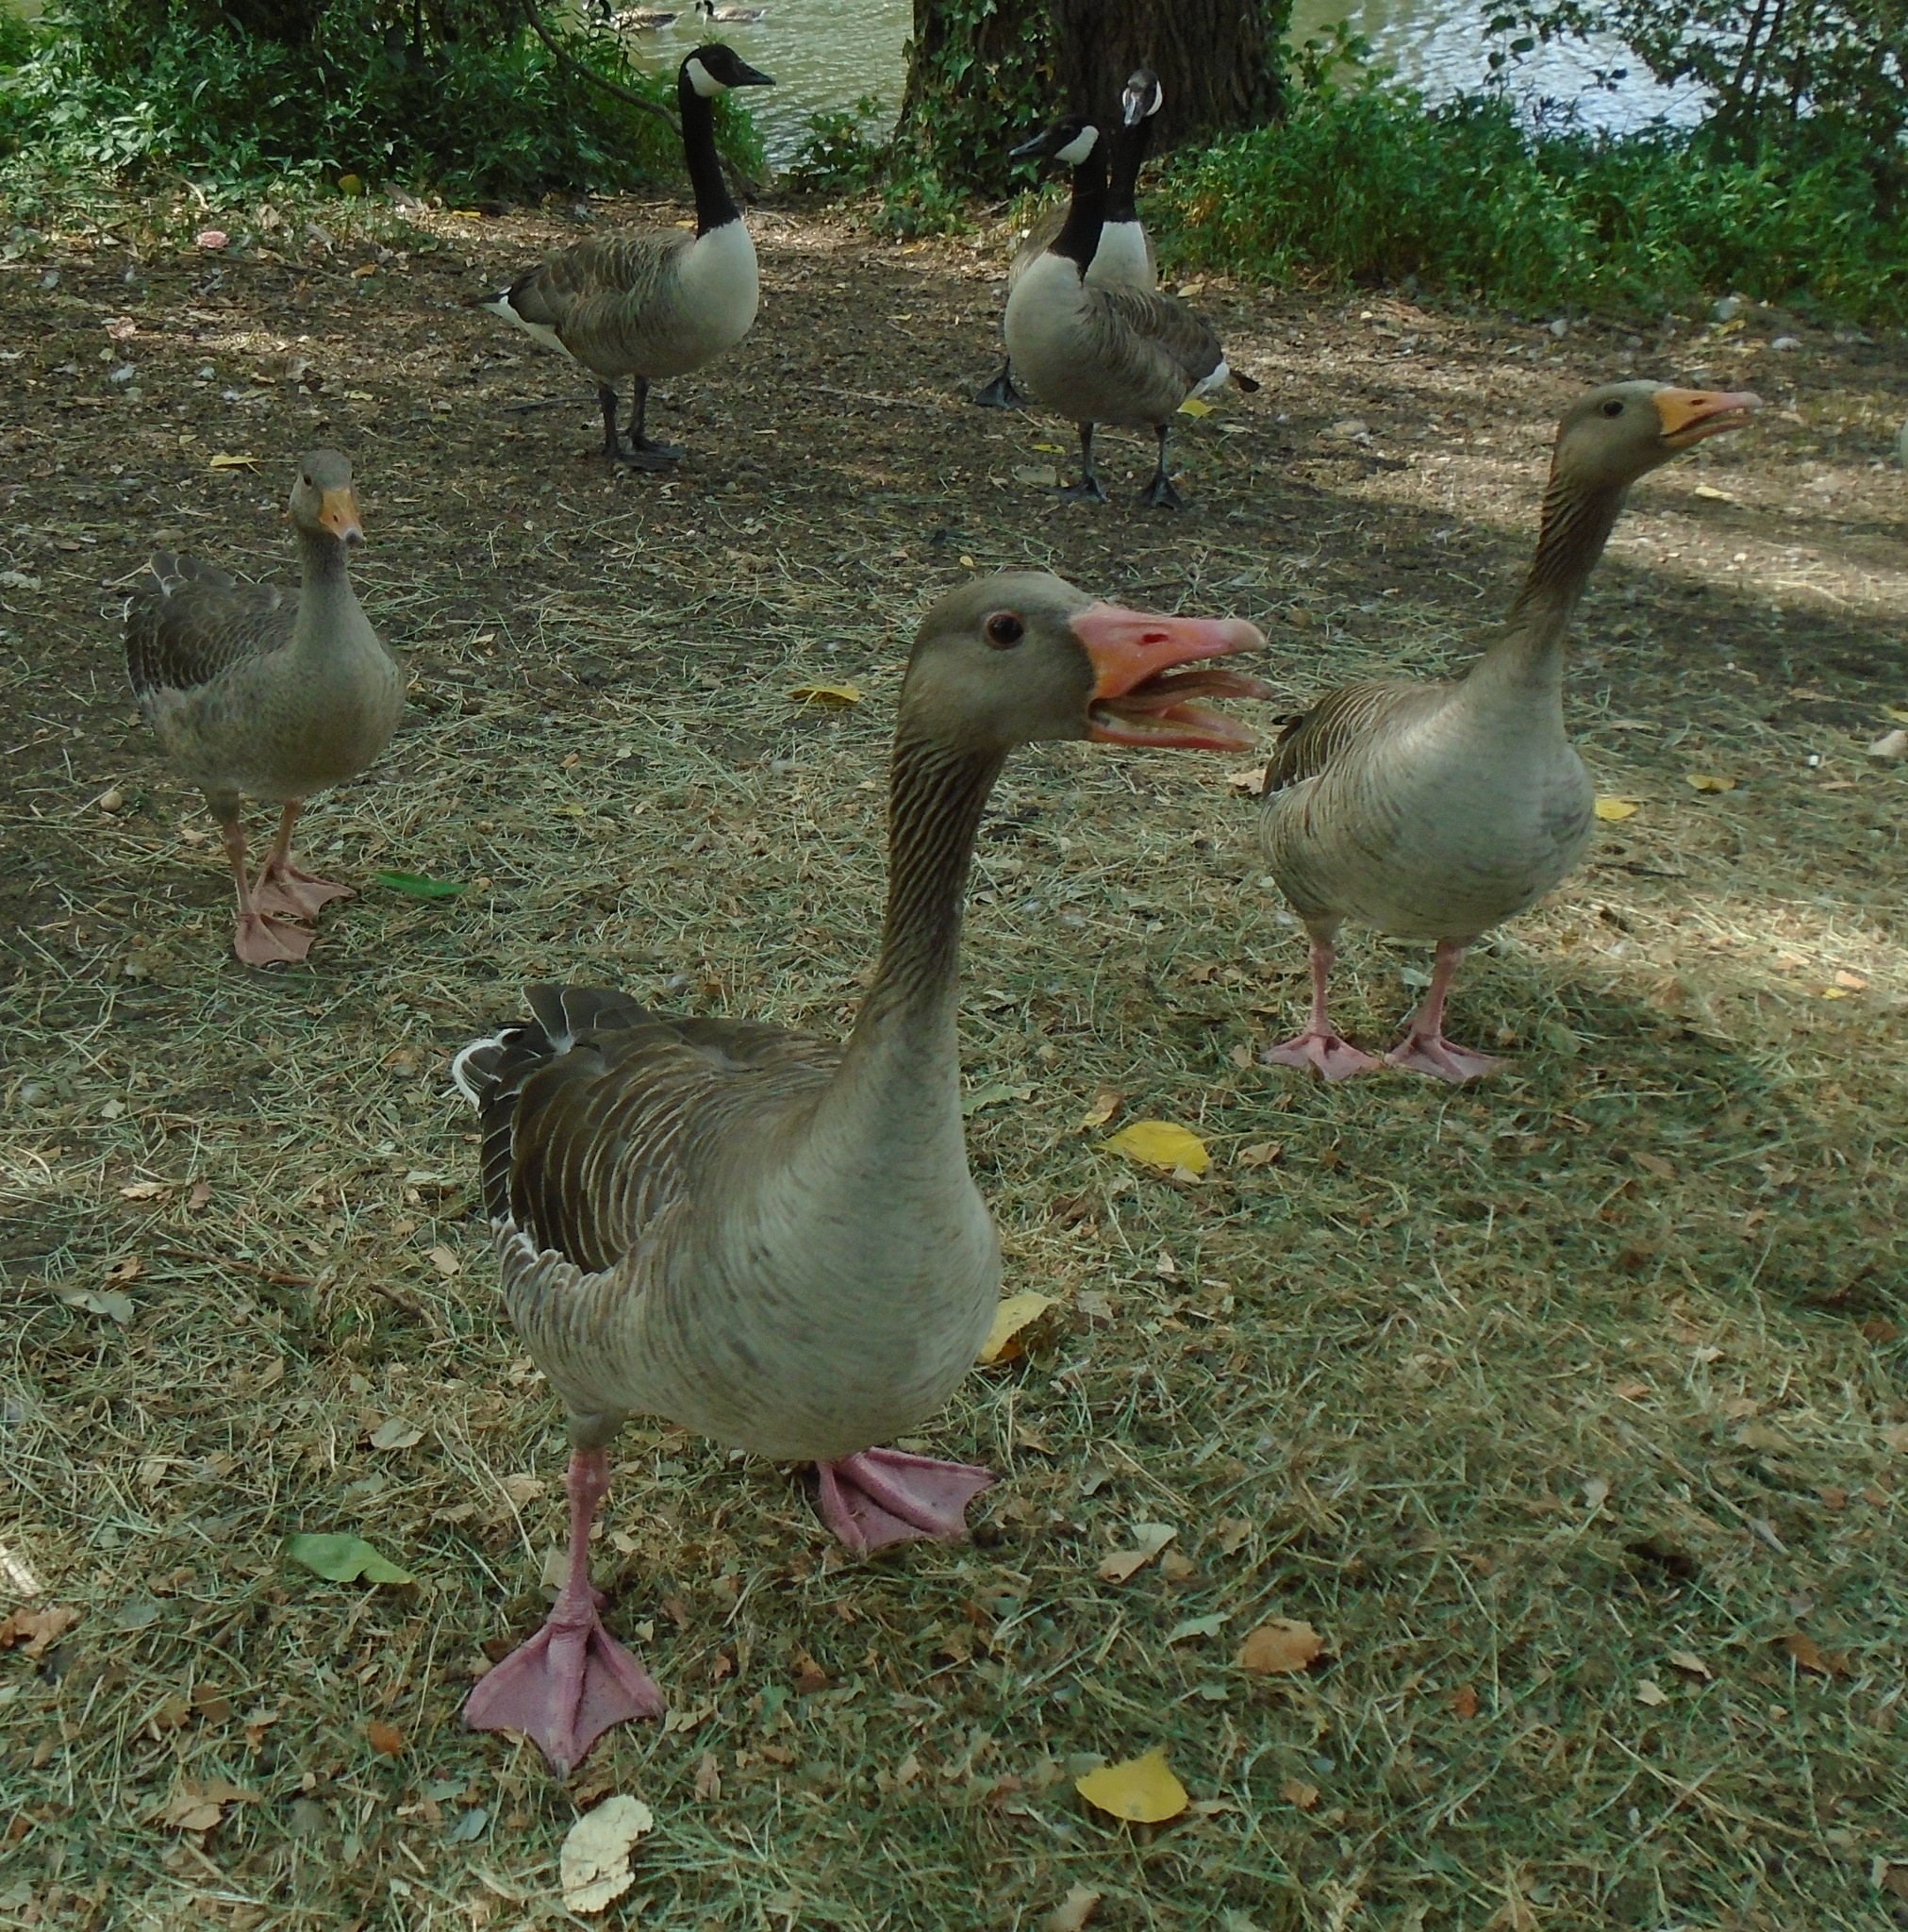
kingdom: Animalia
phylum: Chordata
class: Aves
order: Anseriformes
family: Anatidae
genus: Anser
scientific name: Anser anser
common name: Greylag goose
